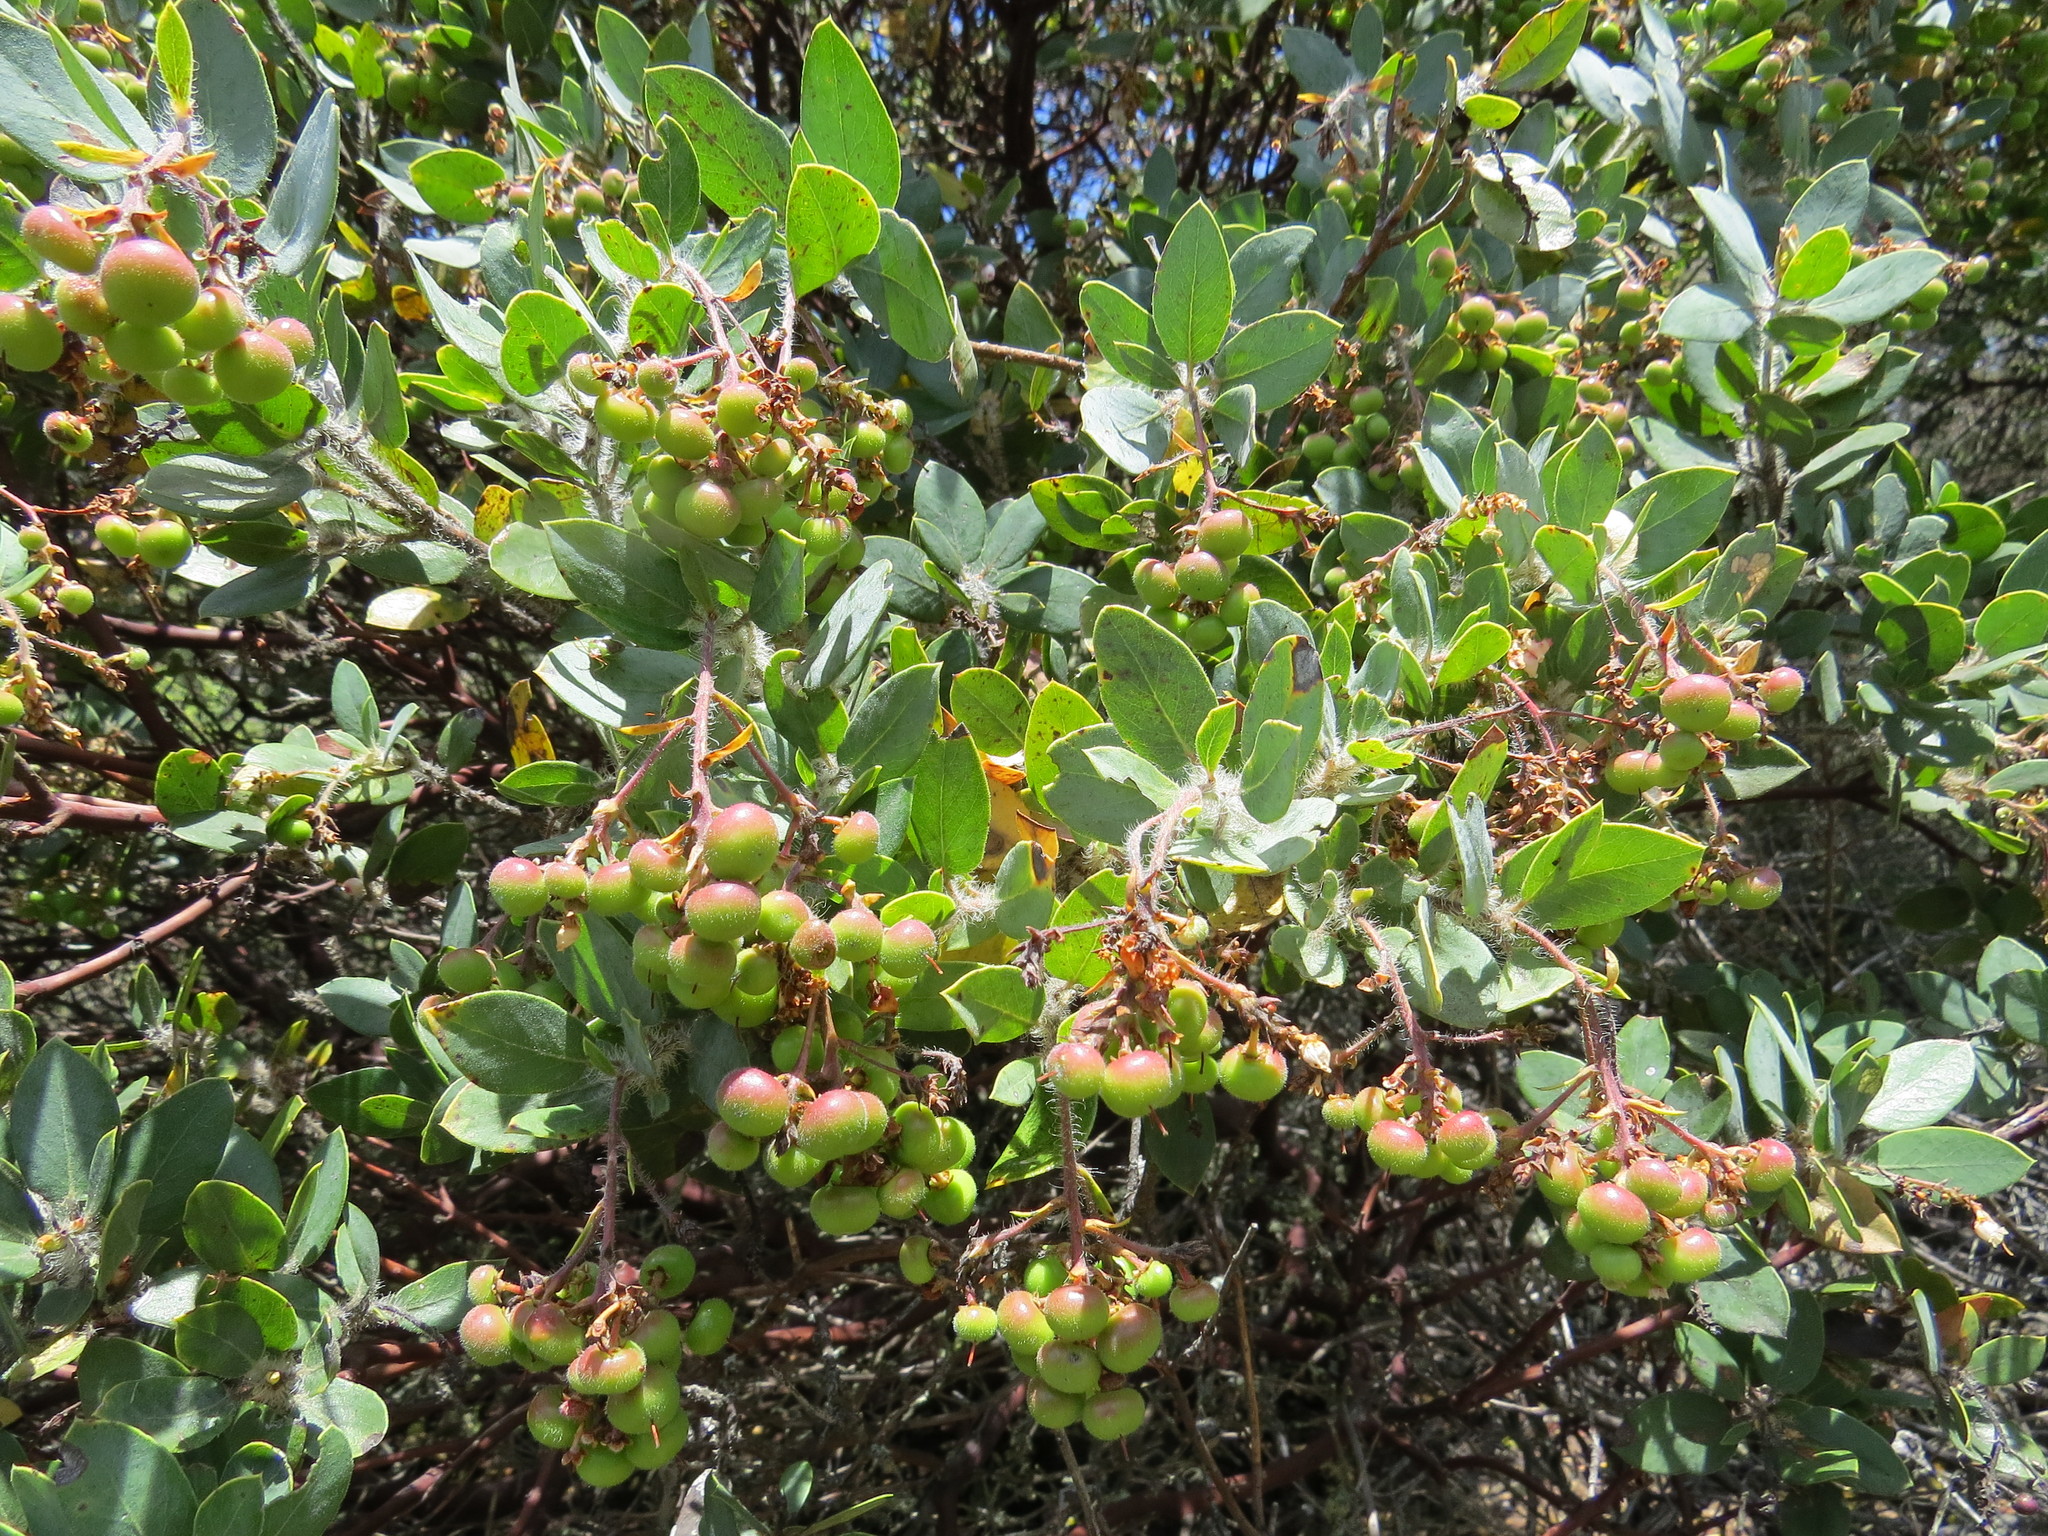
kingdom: Plantae
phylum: Tracheophyta
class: Magnoliopsida
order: Ericales
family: Ericaceae
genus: Arctostaphylos
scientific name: Arctostaphylos crustacea
